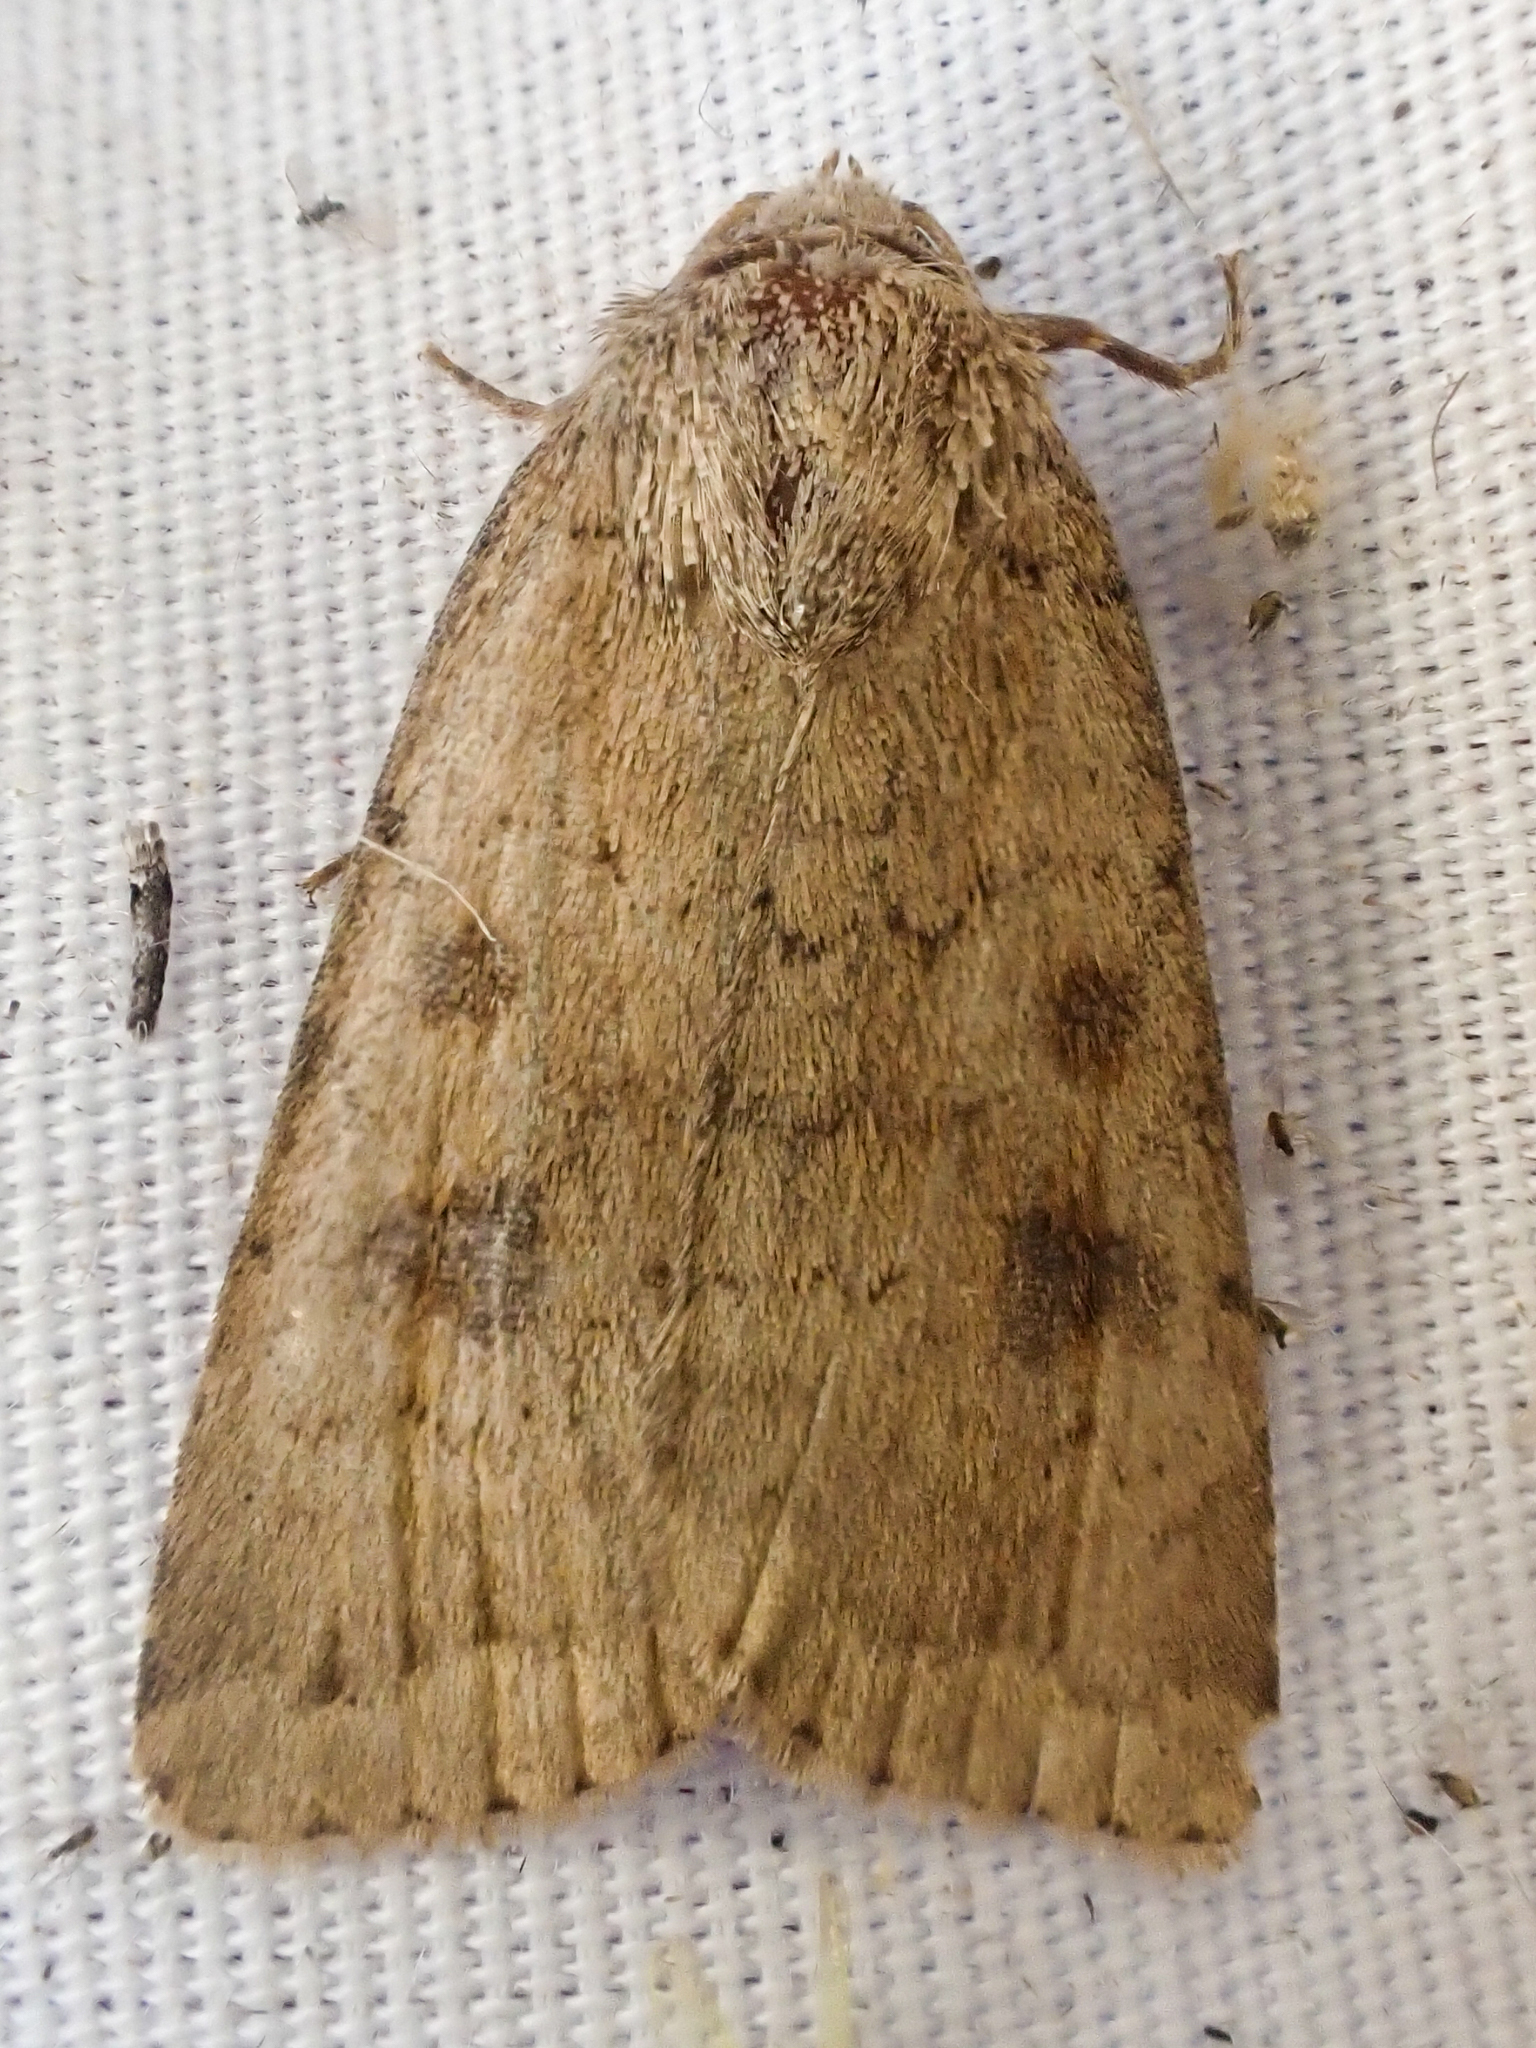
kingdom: Animalia
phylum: Arthropoda
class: Insecta
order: Lepidoptera
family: Noctuidae
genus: Caradrina
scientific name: Caradrina morpheus
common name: Mottled rustic
